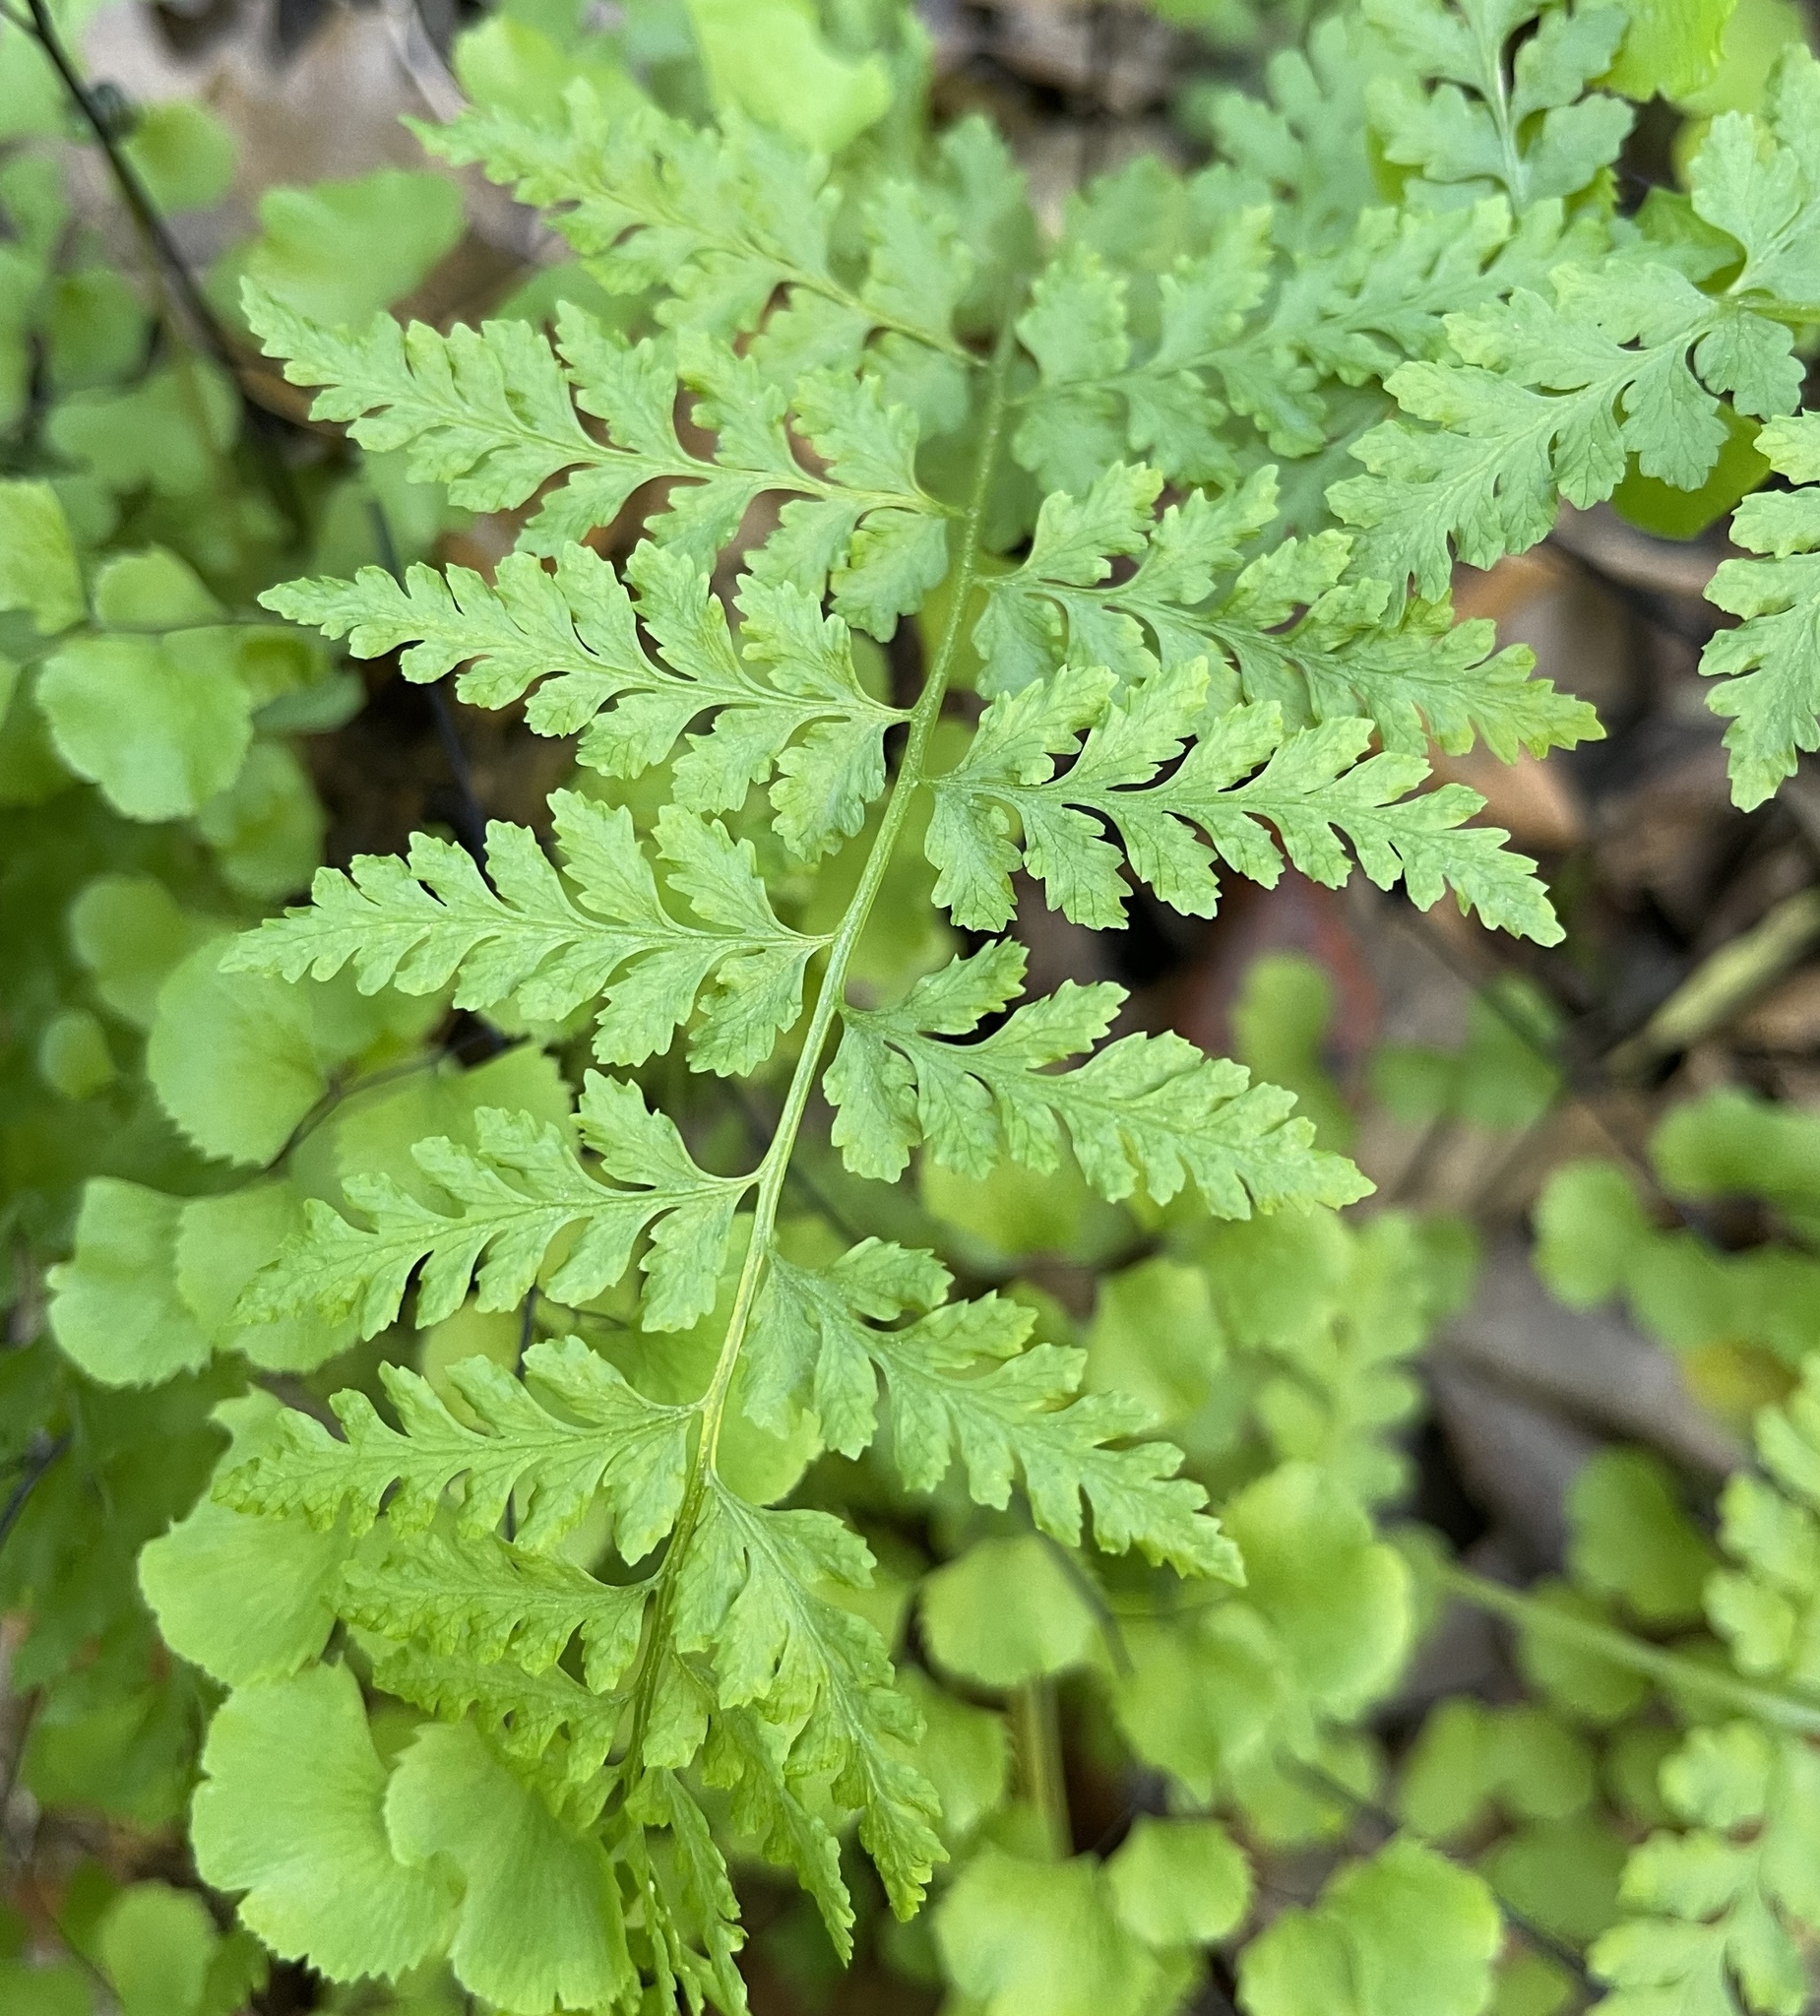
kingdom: Plantae
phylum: Tracheophyta
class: Polypodiopsida
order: Polypodiales
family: Cystopteridaceae
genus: Cystopteris
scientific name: Cystopteris fragilis
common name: Brittle bladder fern
